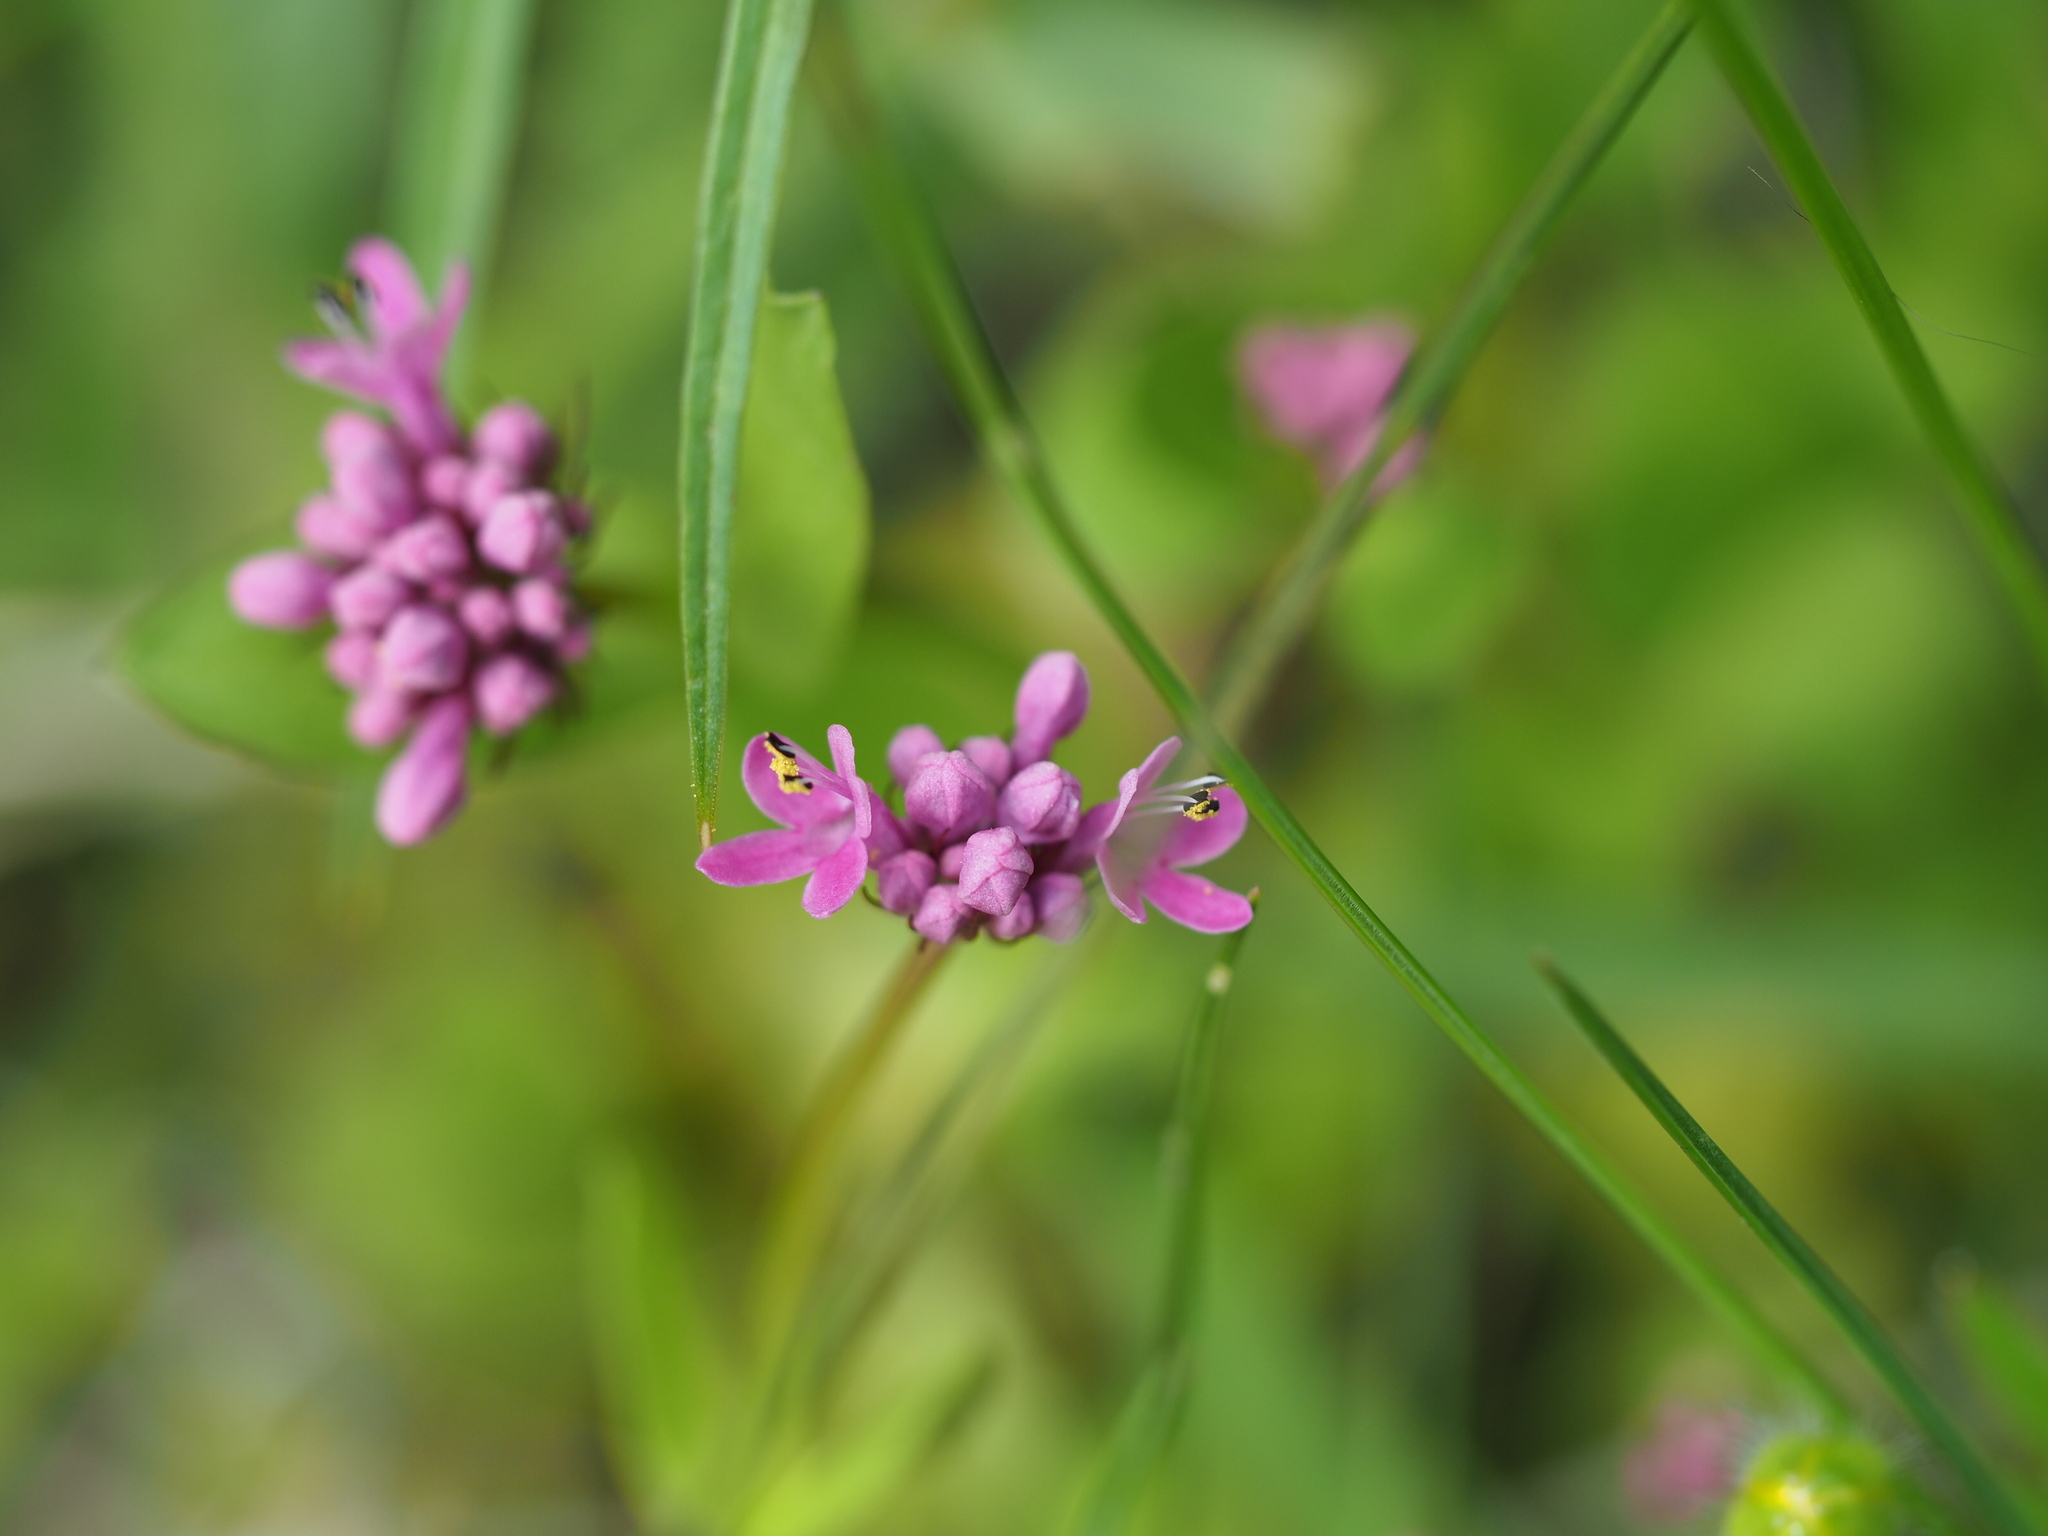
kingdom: Plantae
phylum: Tracheophyta
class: Magnoliopsida
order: Dipsacales
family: Caprifoliaceae
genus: Plectritis
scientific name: Plectritis congesta
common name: Pink plectritis
